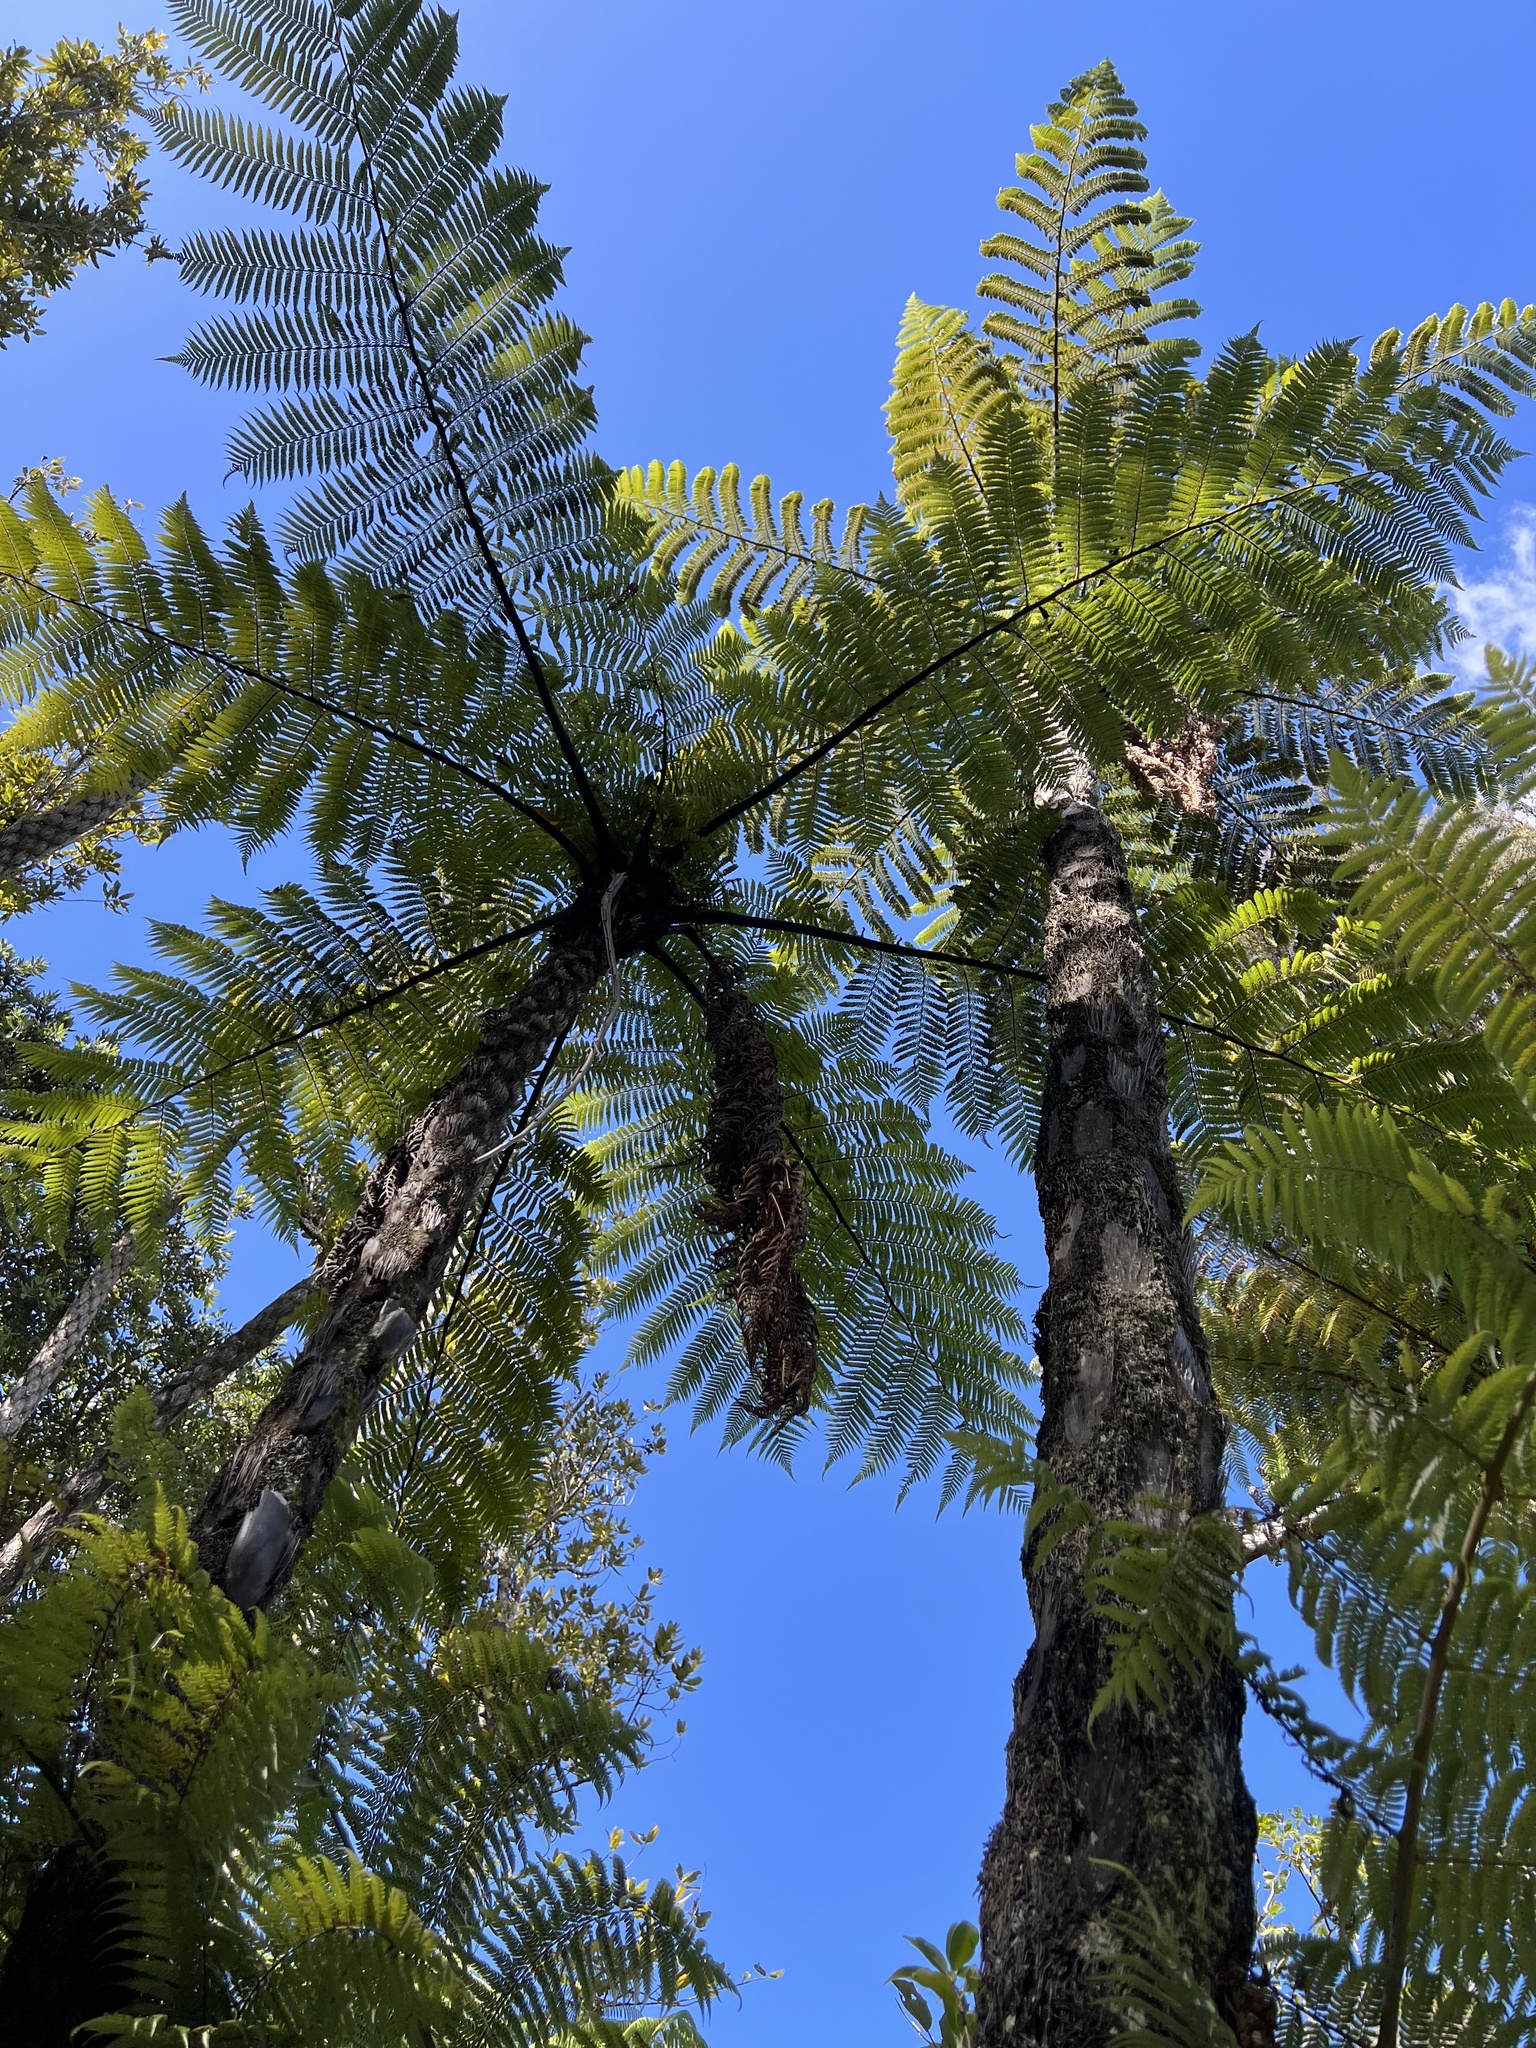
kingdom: Plantae
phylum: Tracheophyta
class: Polypodiopsida
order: Cyatheales
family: Cyatheaceae
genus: Sphaeropteris
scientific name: Sphaeropteris medullaris
